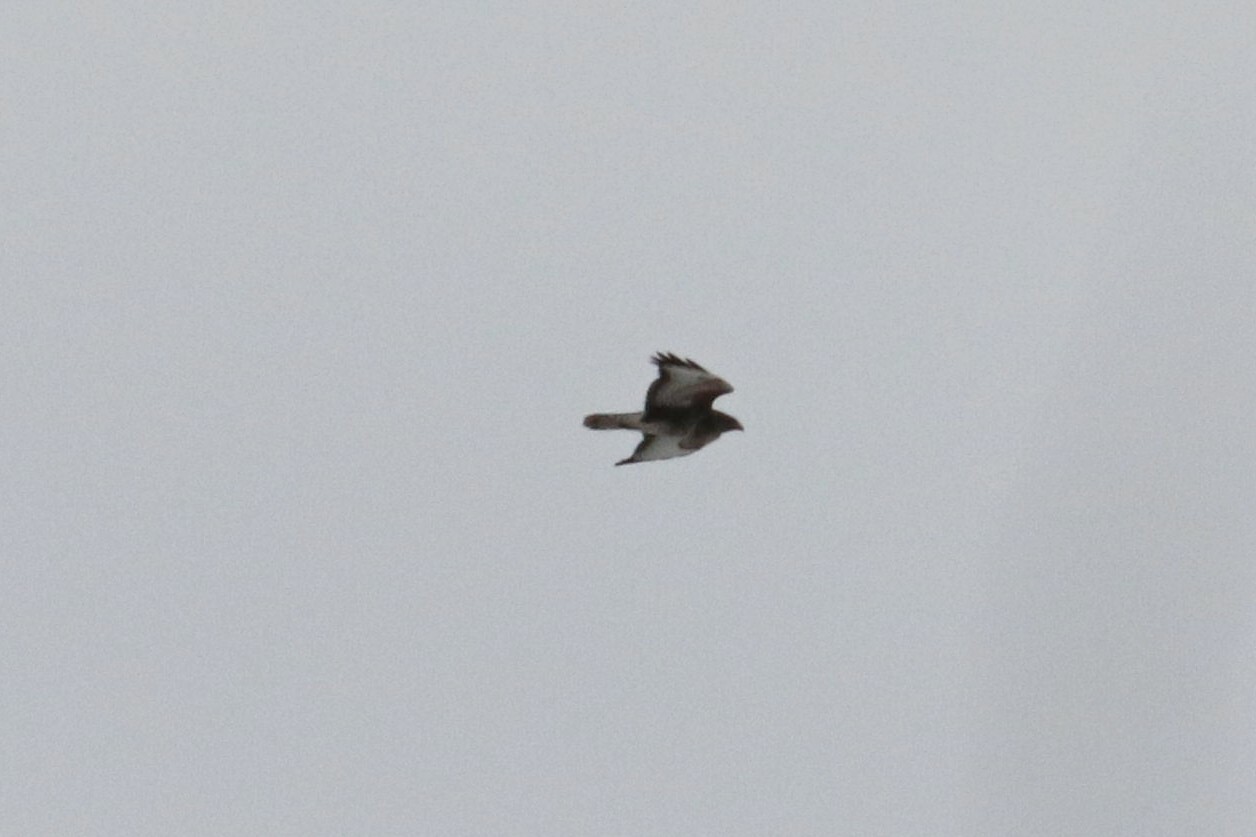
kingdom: Animalia
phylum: Chordata
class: Aves
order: Accipitriformes
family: Accipitridae
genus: Buteo
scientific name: Buteo buteo
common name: Common buzzard
